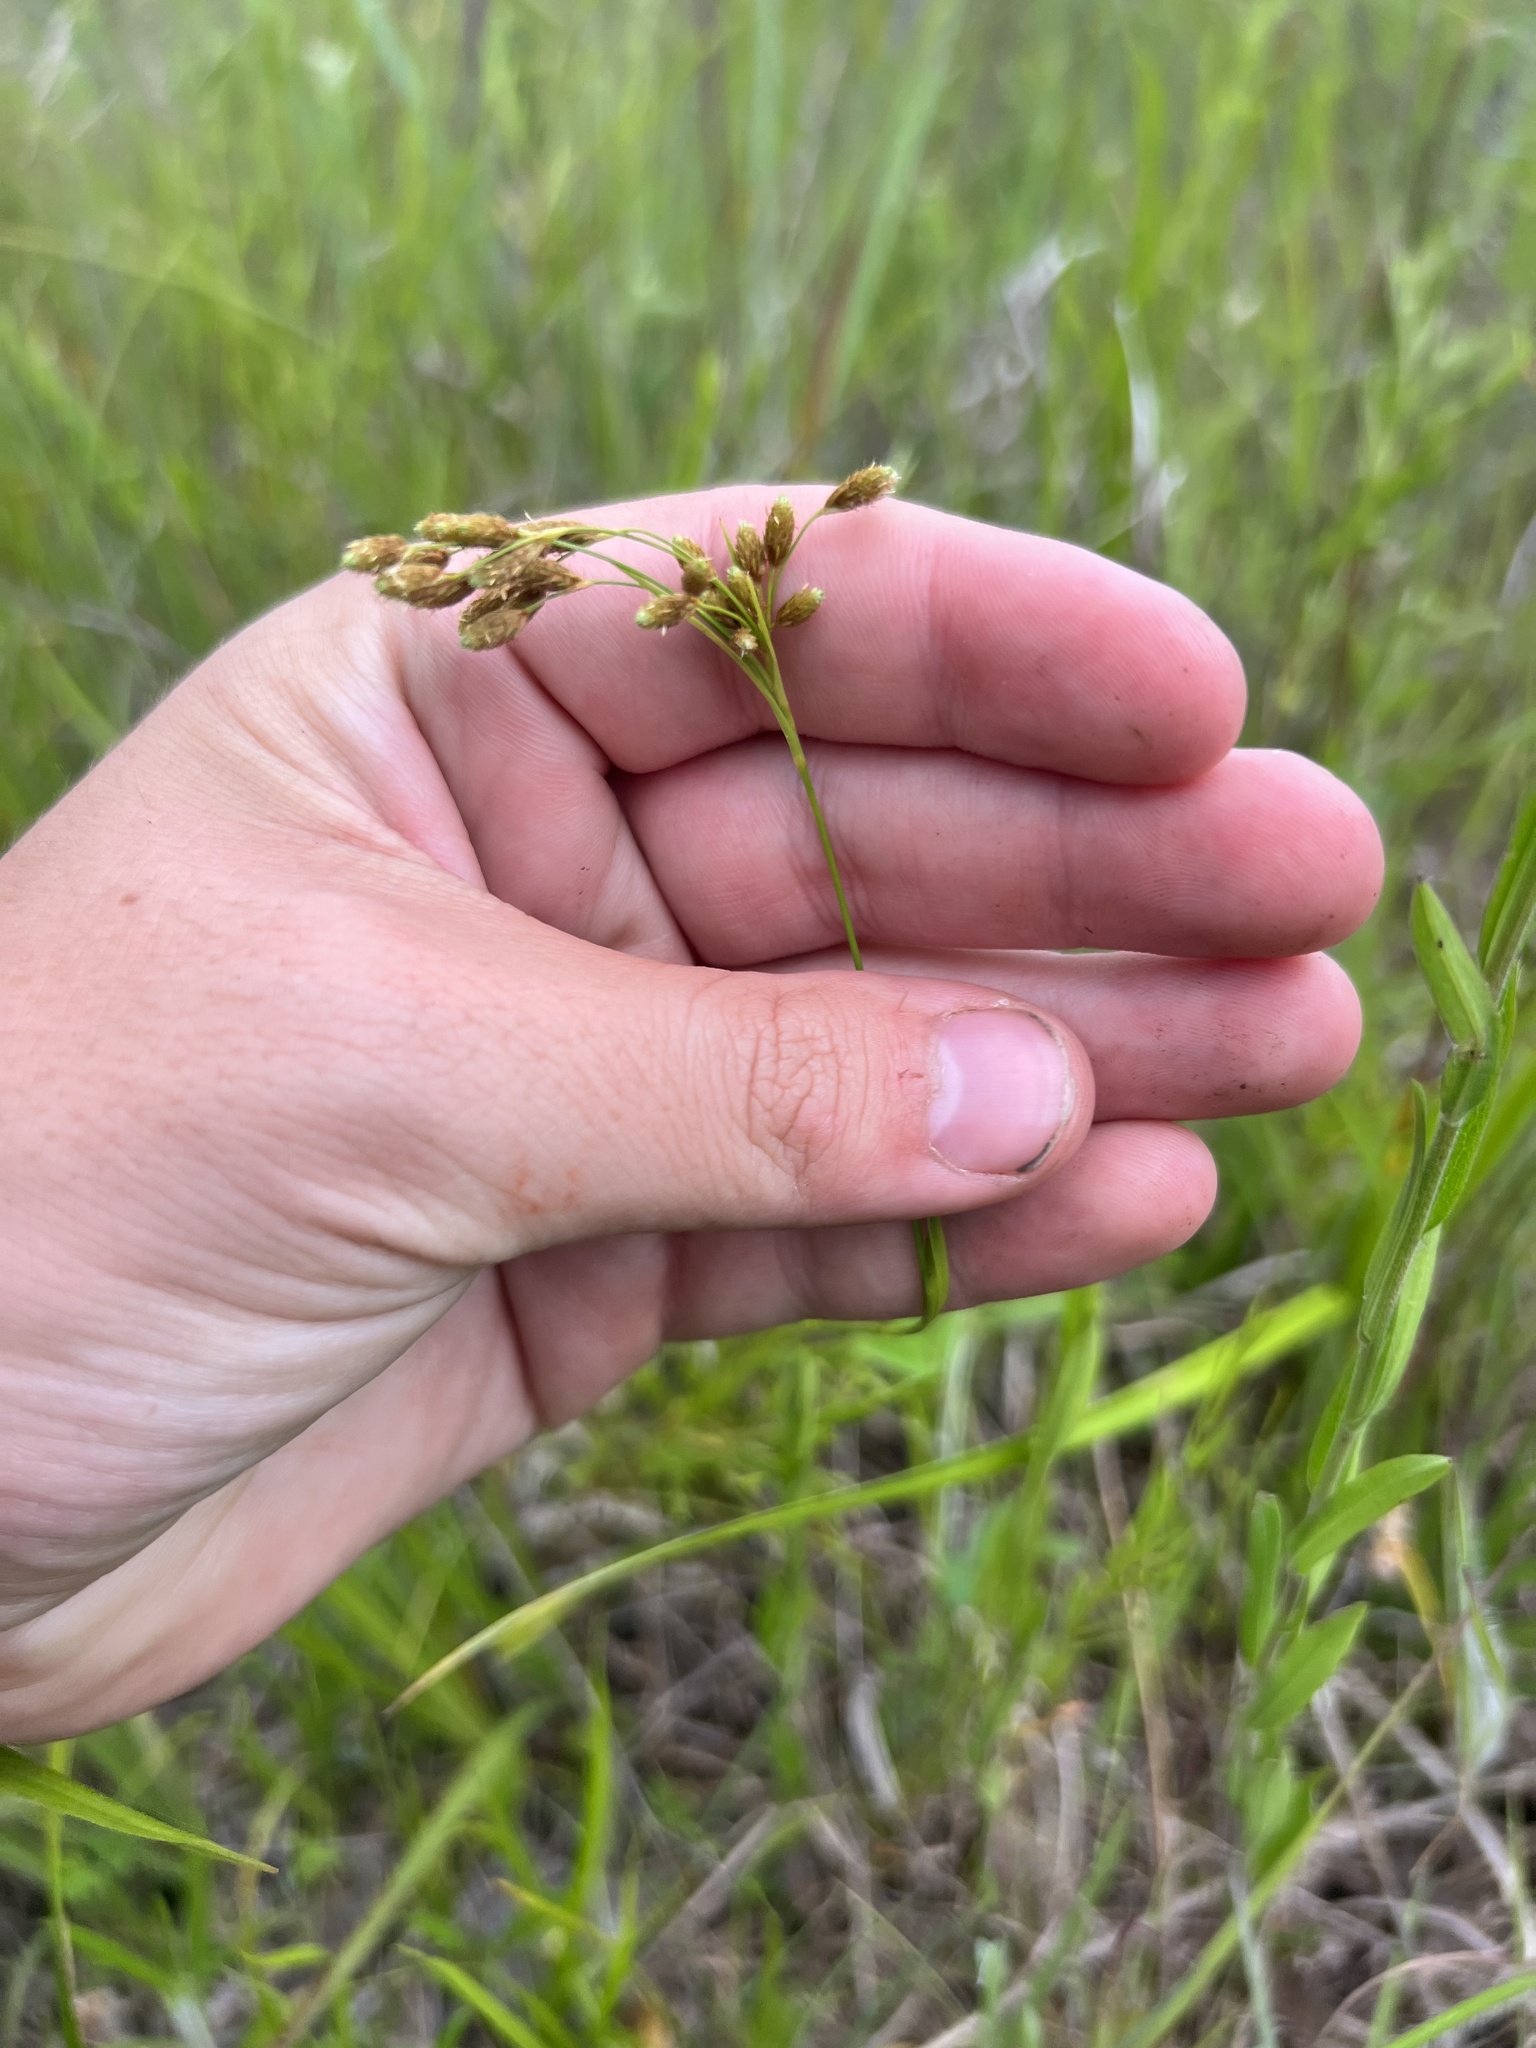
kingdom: Plantae
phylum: Tracheophyta
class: Liliopsida
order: Poales
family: Cyperaceae
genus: Scirpus
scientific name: Scirpus pendulus
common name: Nodding bulrush
